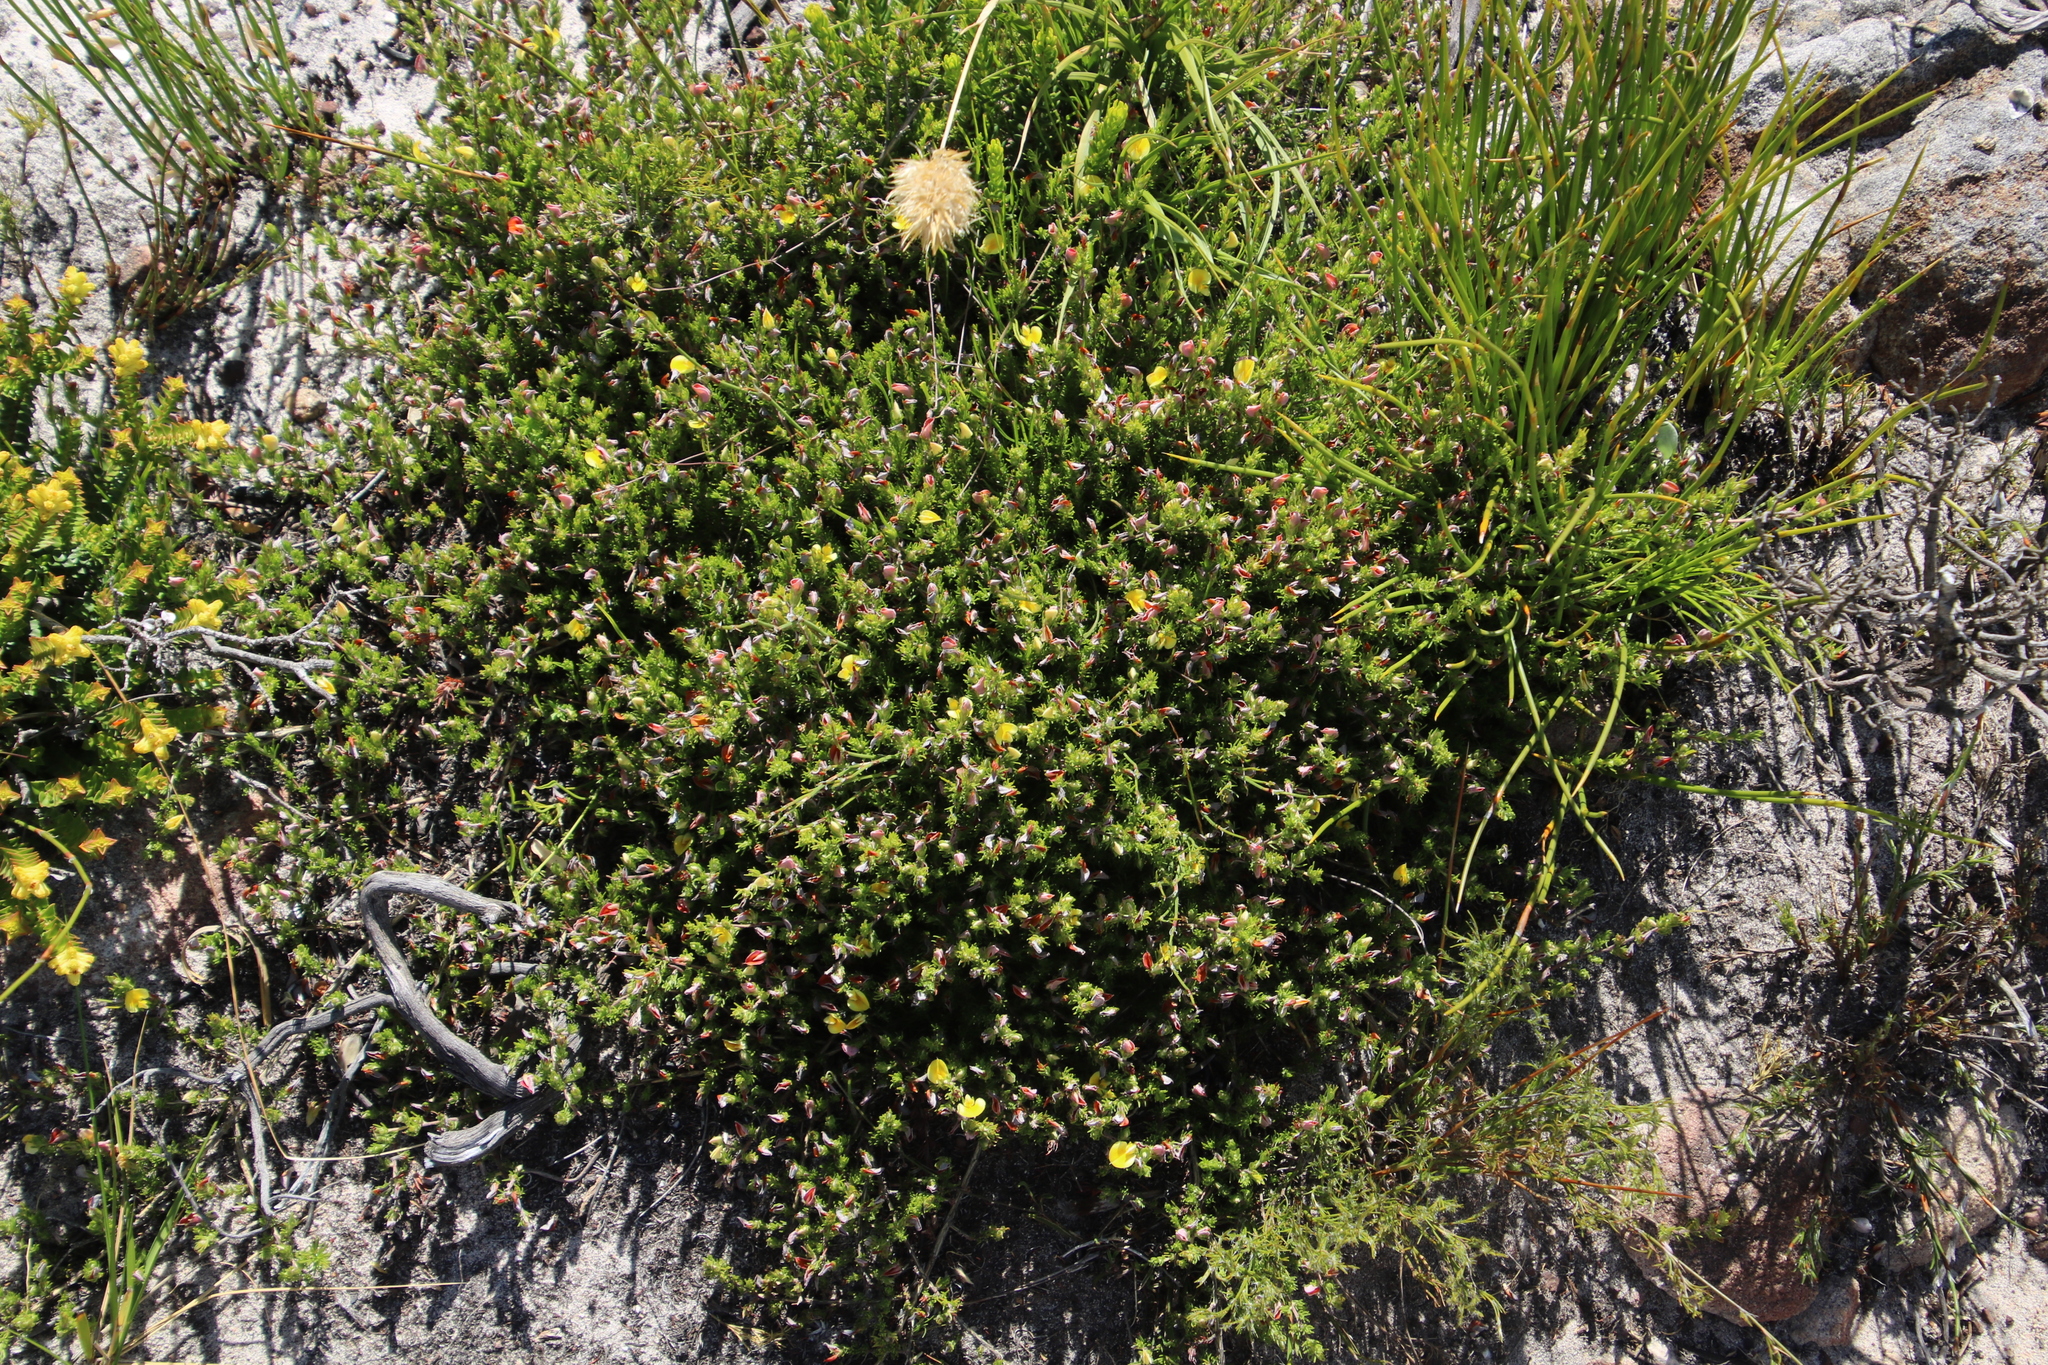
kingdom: Plantae
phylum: Tracheophyta
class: Magnoliopsida
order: Fabales
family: Fabaceae
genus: Aspalathus
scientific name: Aspalathus incurva
